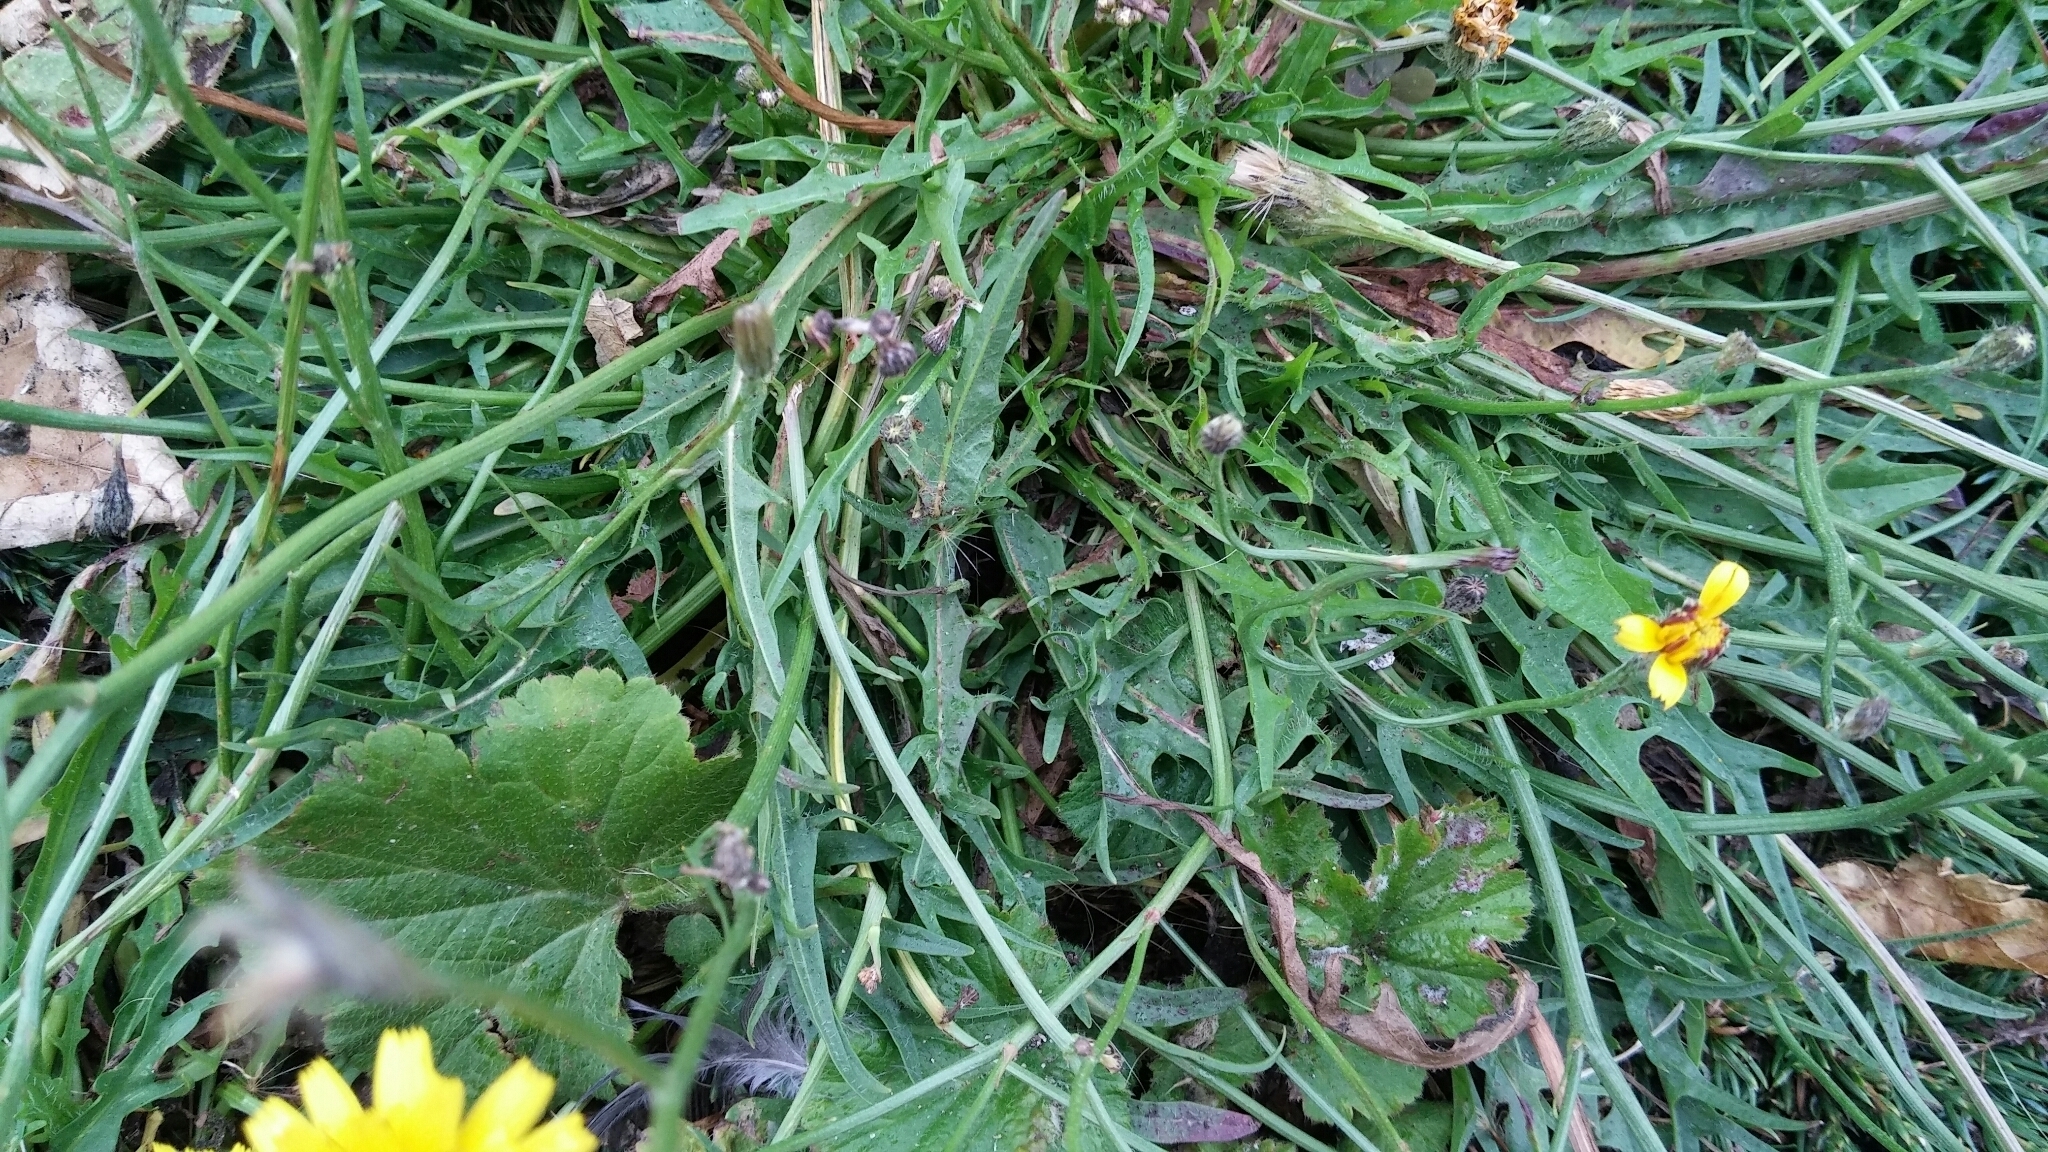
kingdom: Plantae
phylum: Tracheophyta
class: Magnoliopsida
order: Asterales
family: Asteraceae
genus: Scorzoneroides
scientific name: Scorzoneroides autumnalis
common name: Autumn hawkbit
